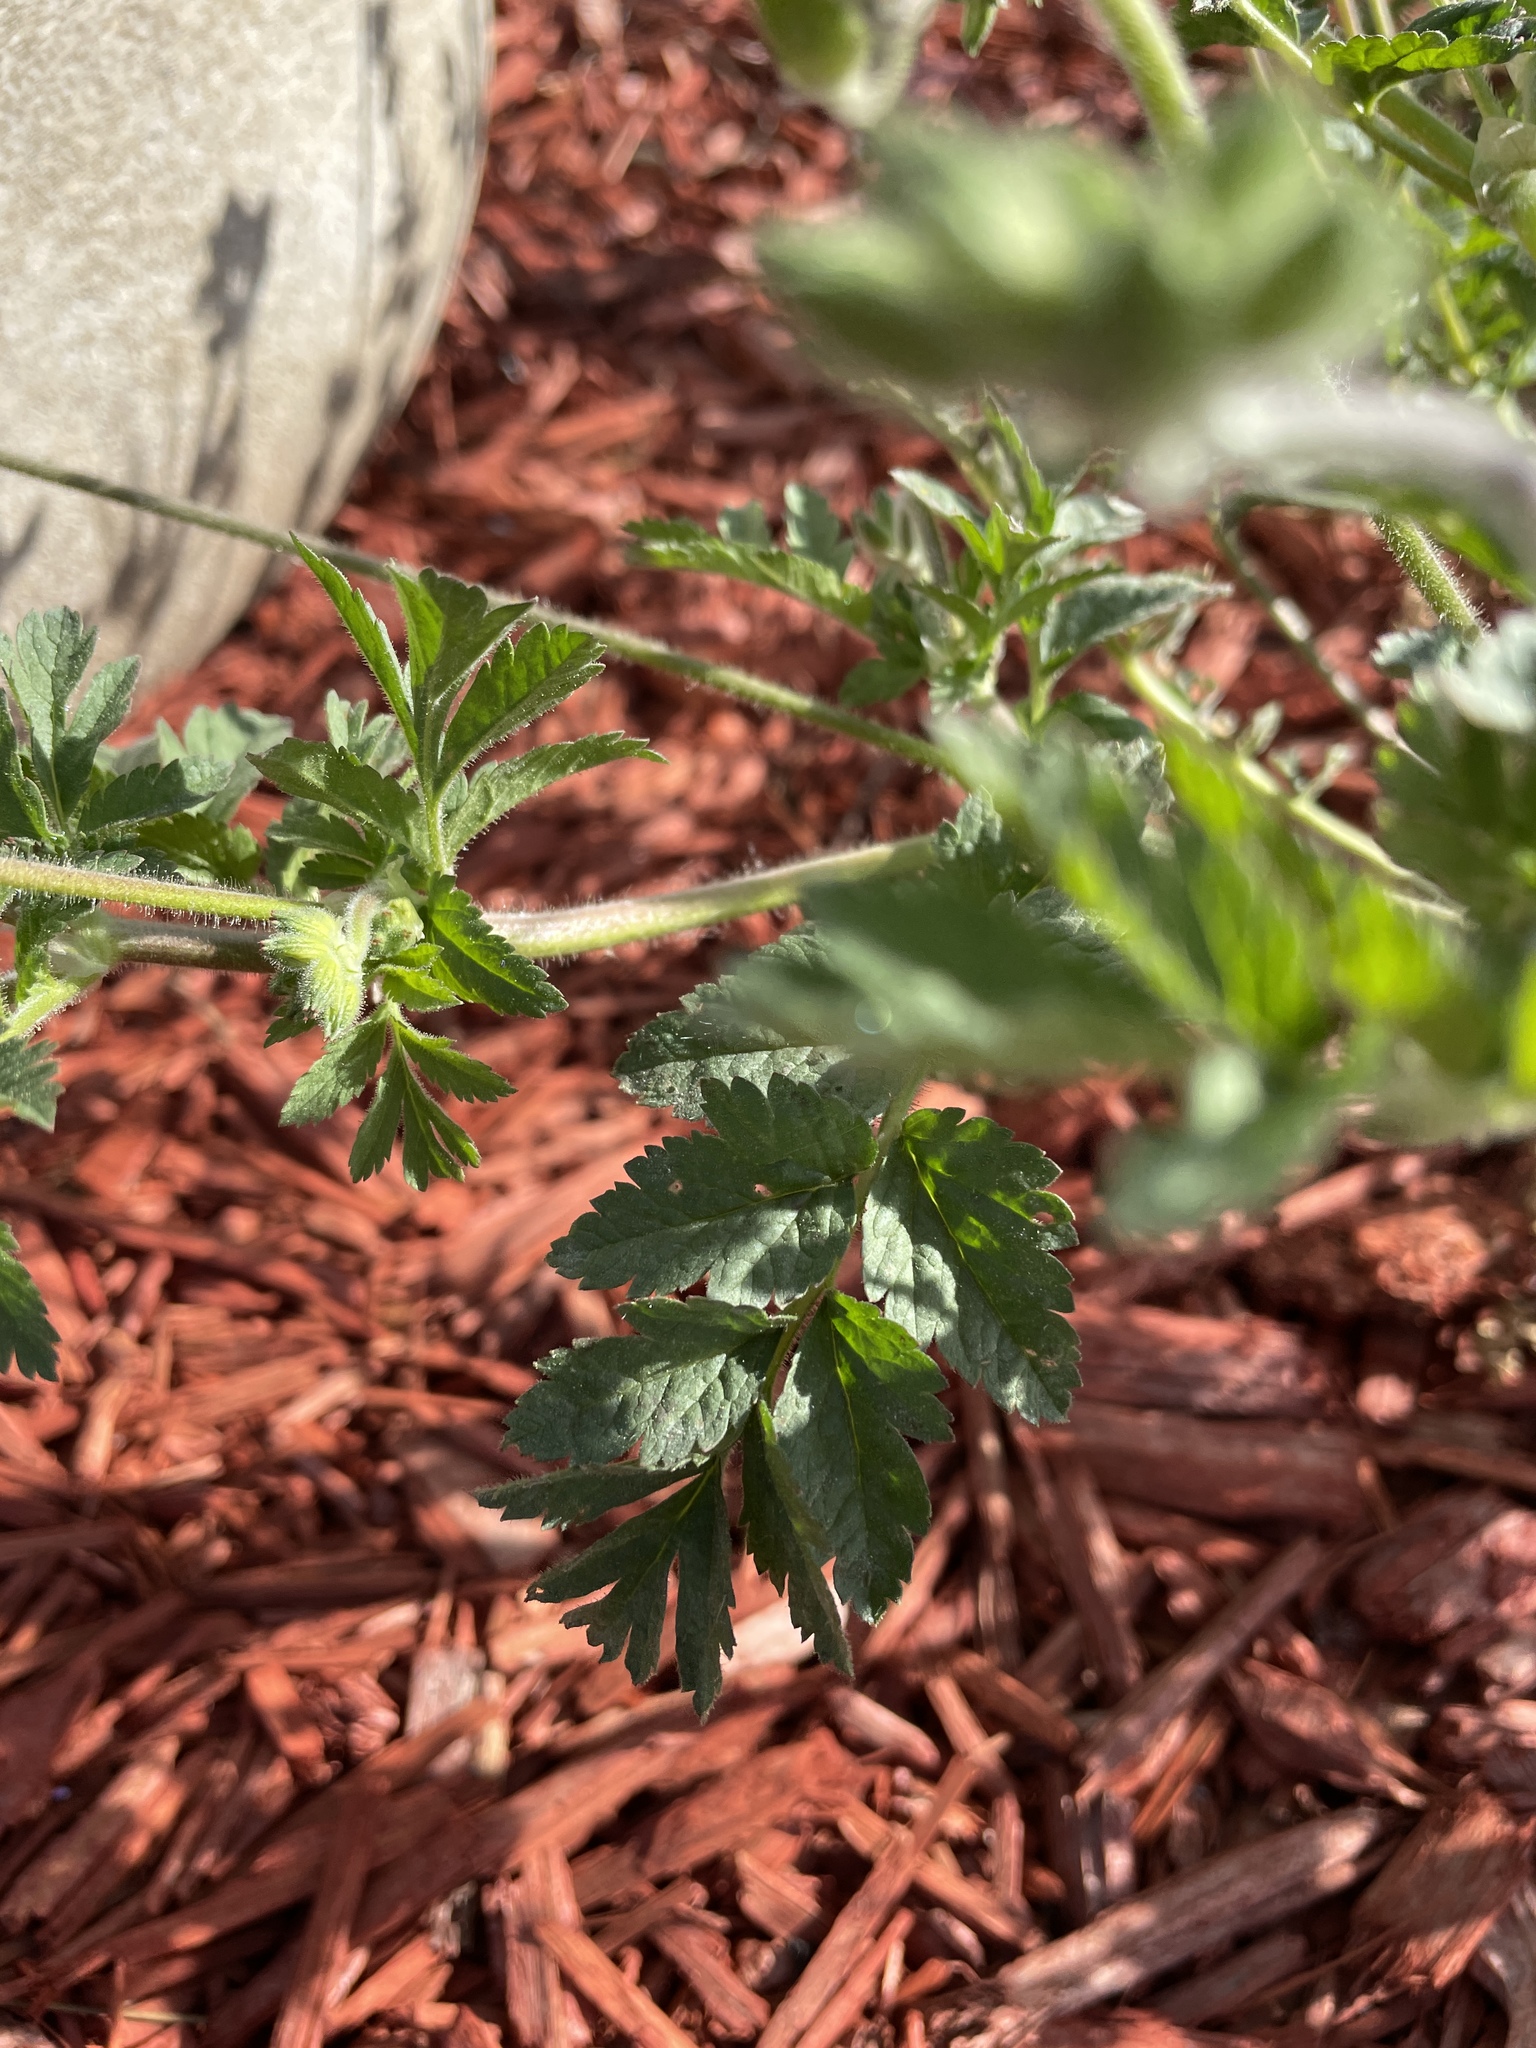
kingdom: Plantae
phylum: Tracheophyta
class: Magnoliopsida
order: Geraniales
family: Geraniaceae
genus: Erodium
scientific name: Erodium moschatum
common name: Musk stork's-bill
